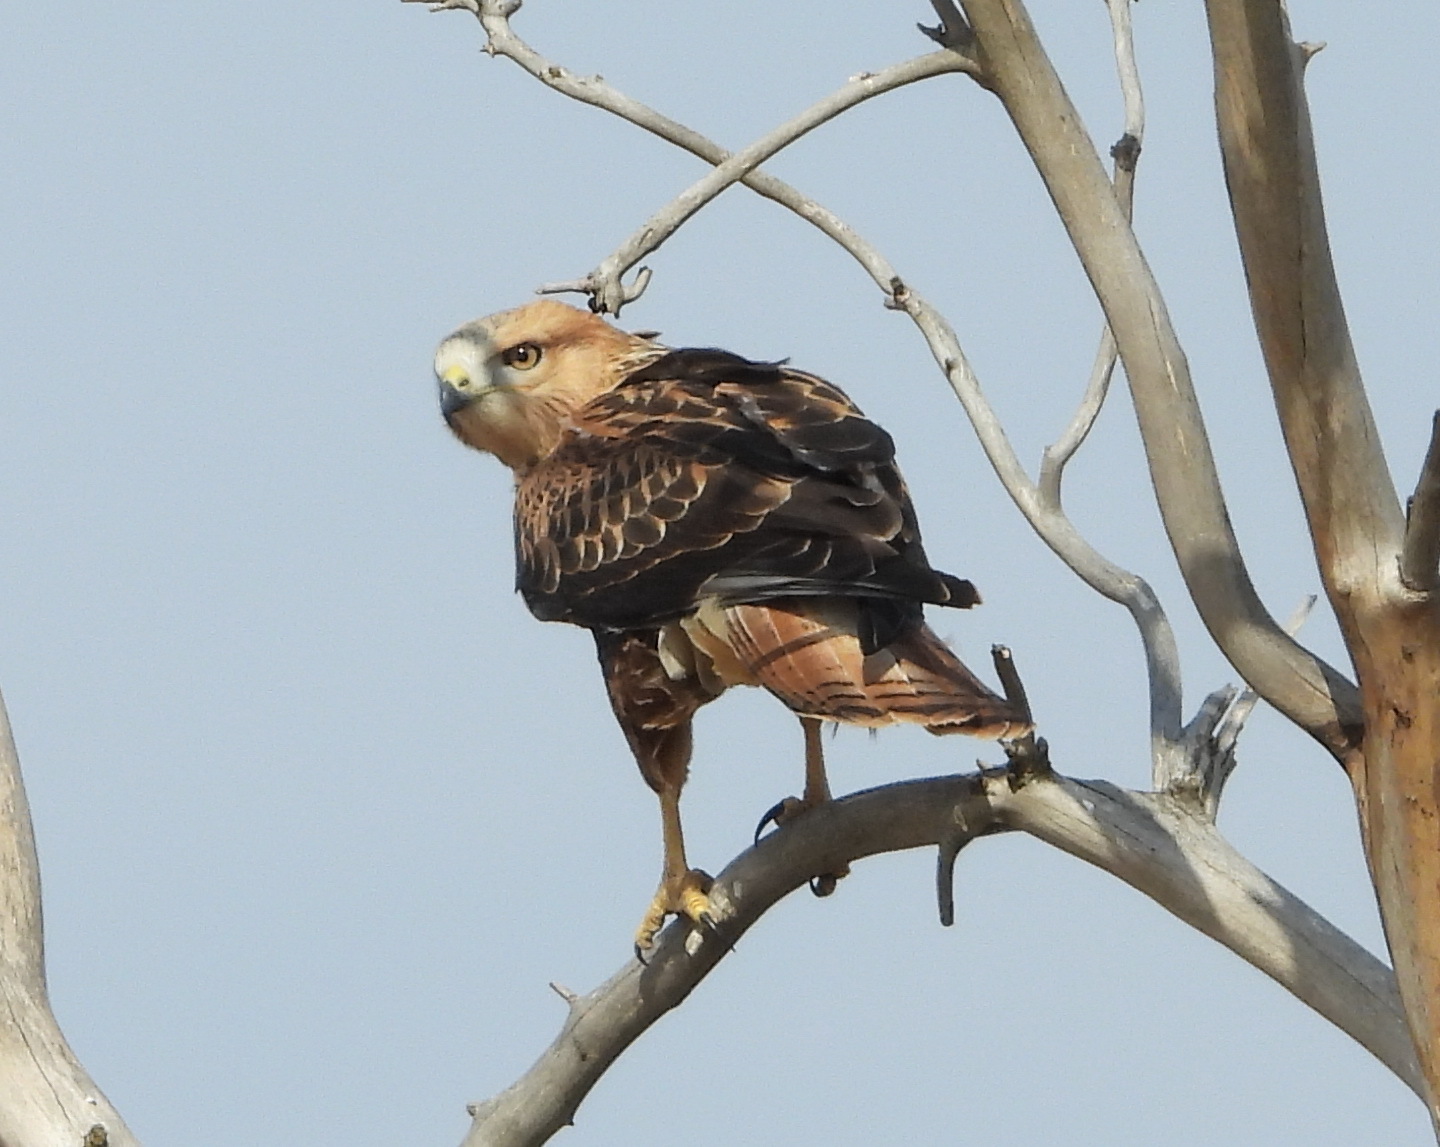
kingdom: Animalia
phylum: Chordata
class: Aves
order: Accipitriformes
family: Accipitridae
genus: Buteo
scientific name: Buteo rufinus
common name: Long-legged buzzard
